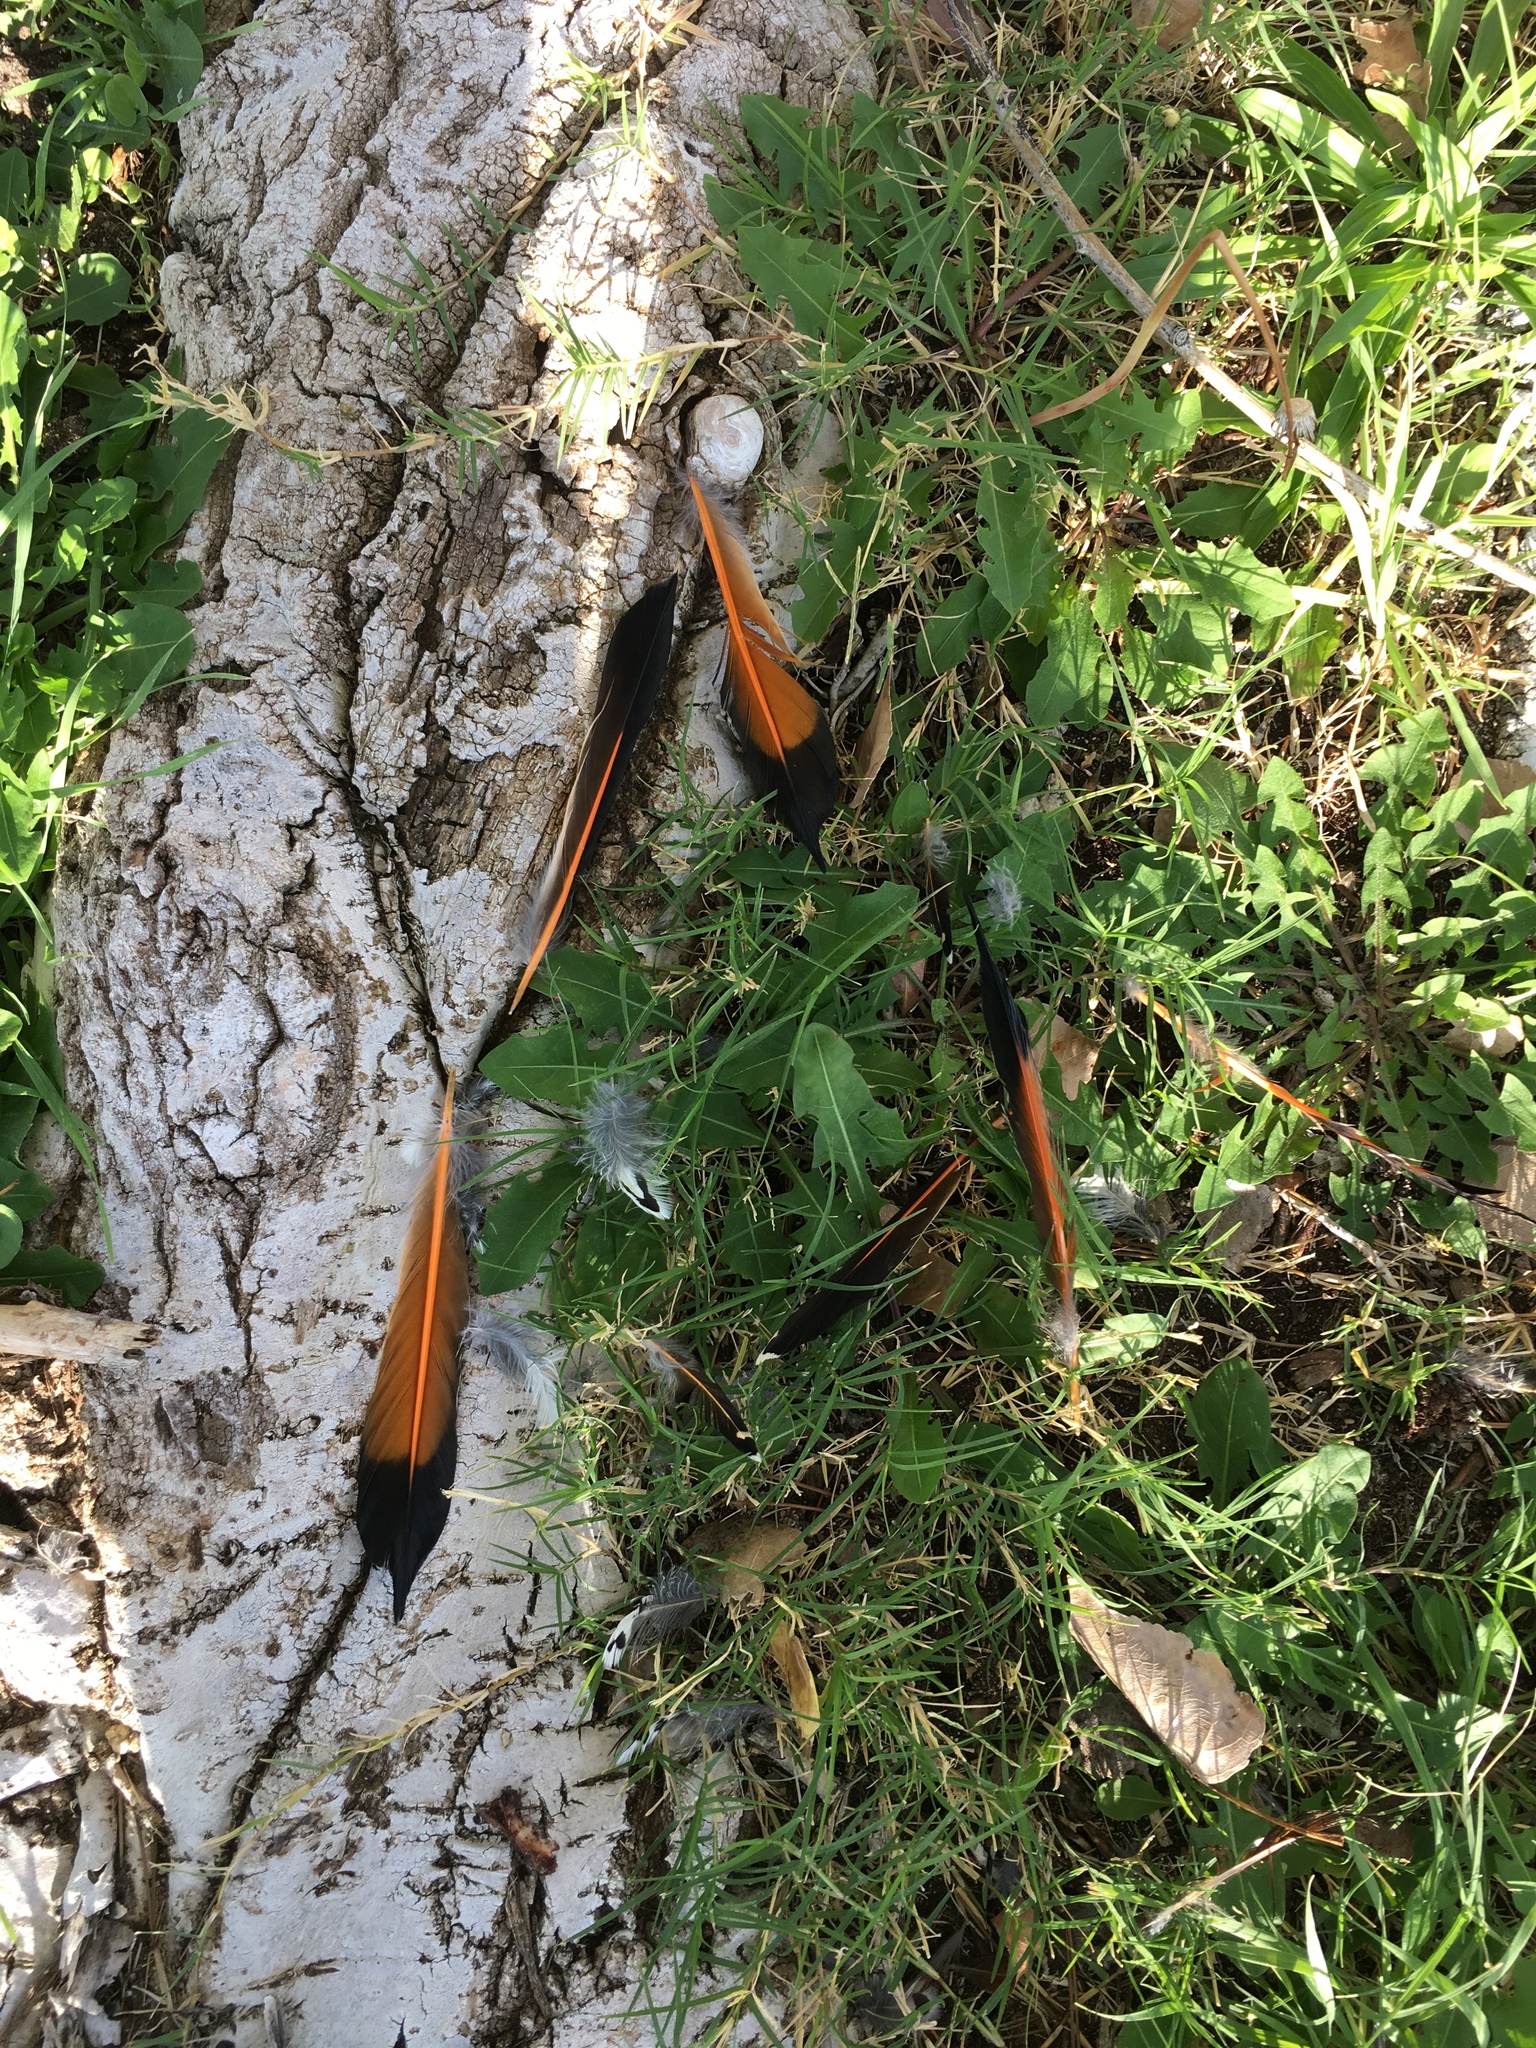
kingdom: Animalia
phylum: Chordata
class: Aves
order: Piciformes
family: Picidae
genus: Colaptes
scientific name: Colaptes auratus
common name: Northern flicker
